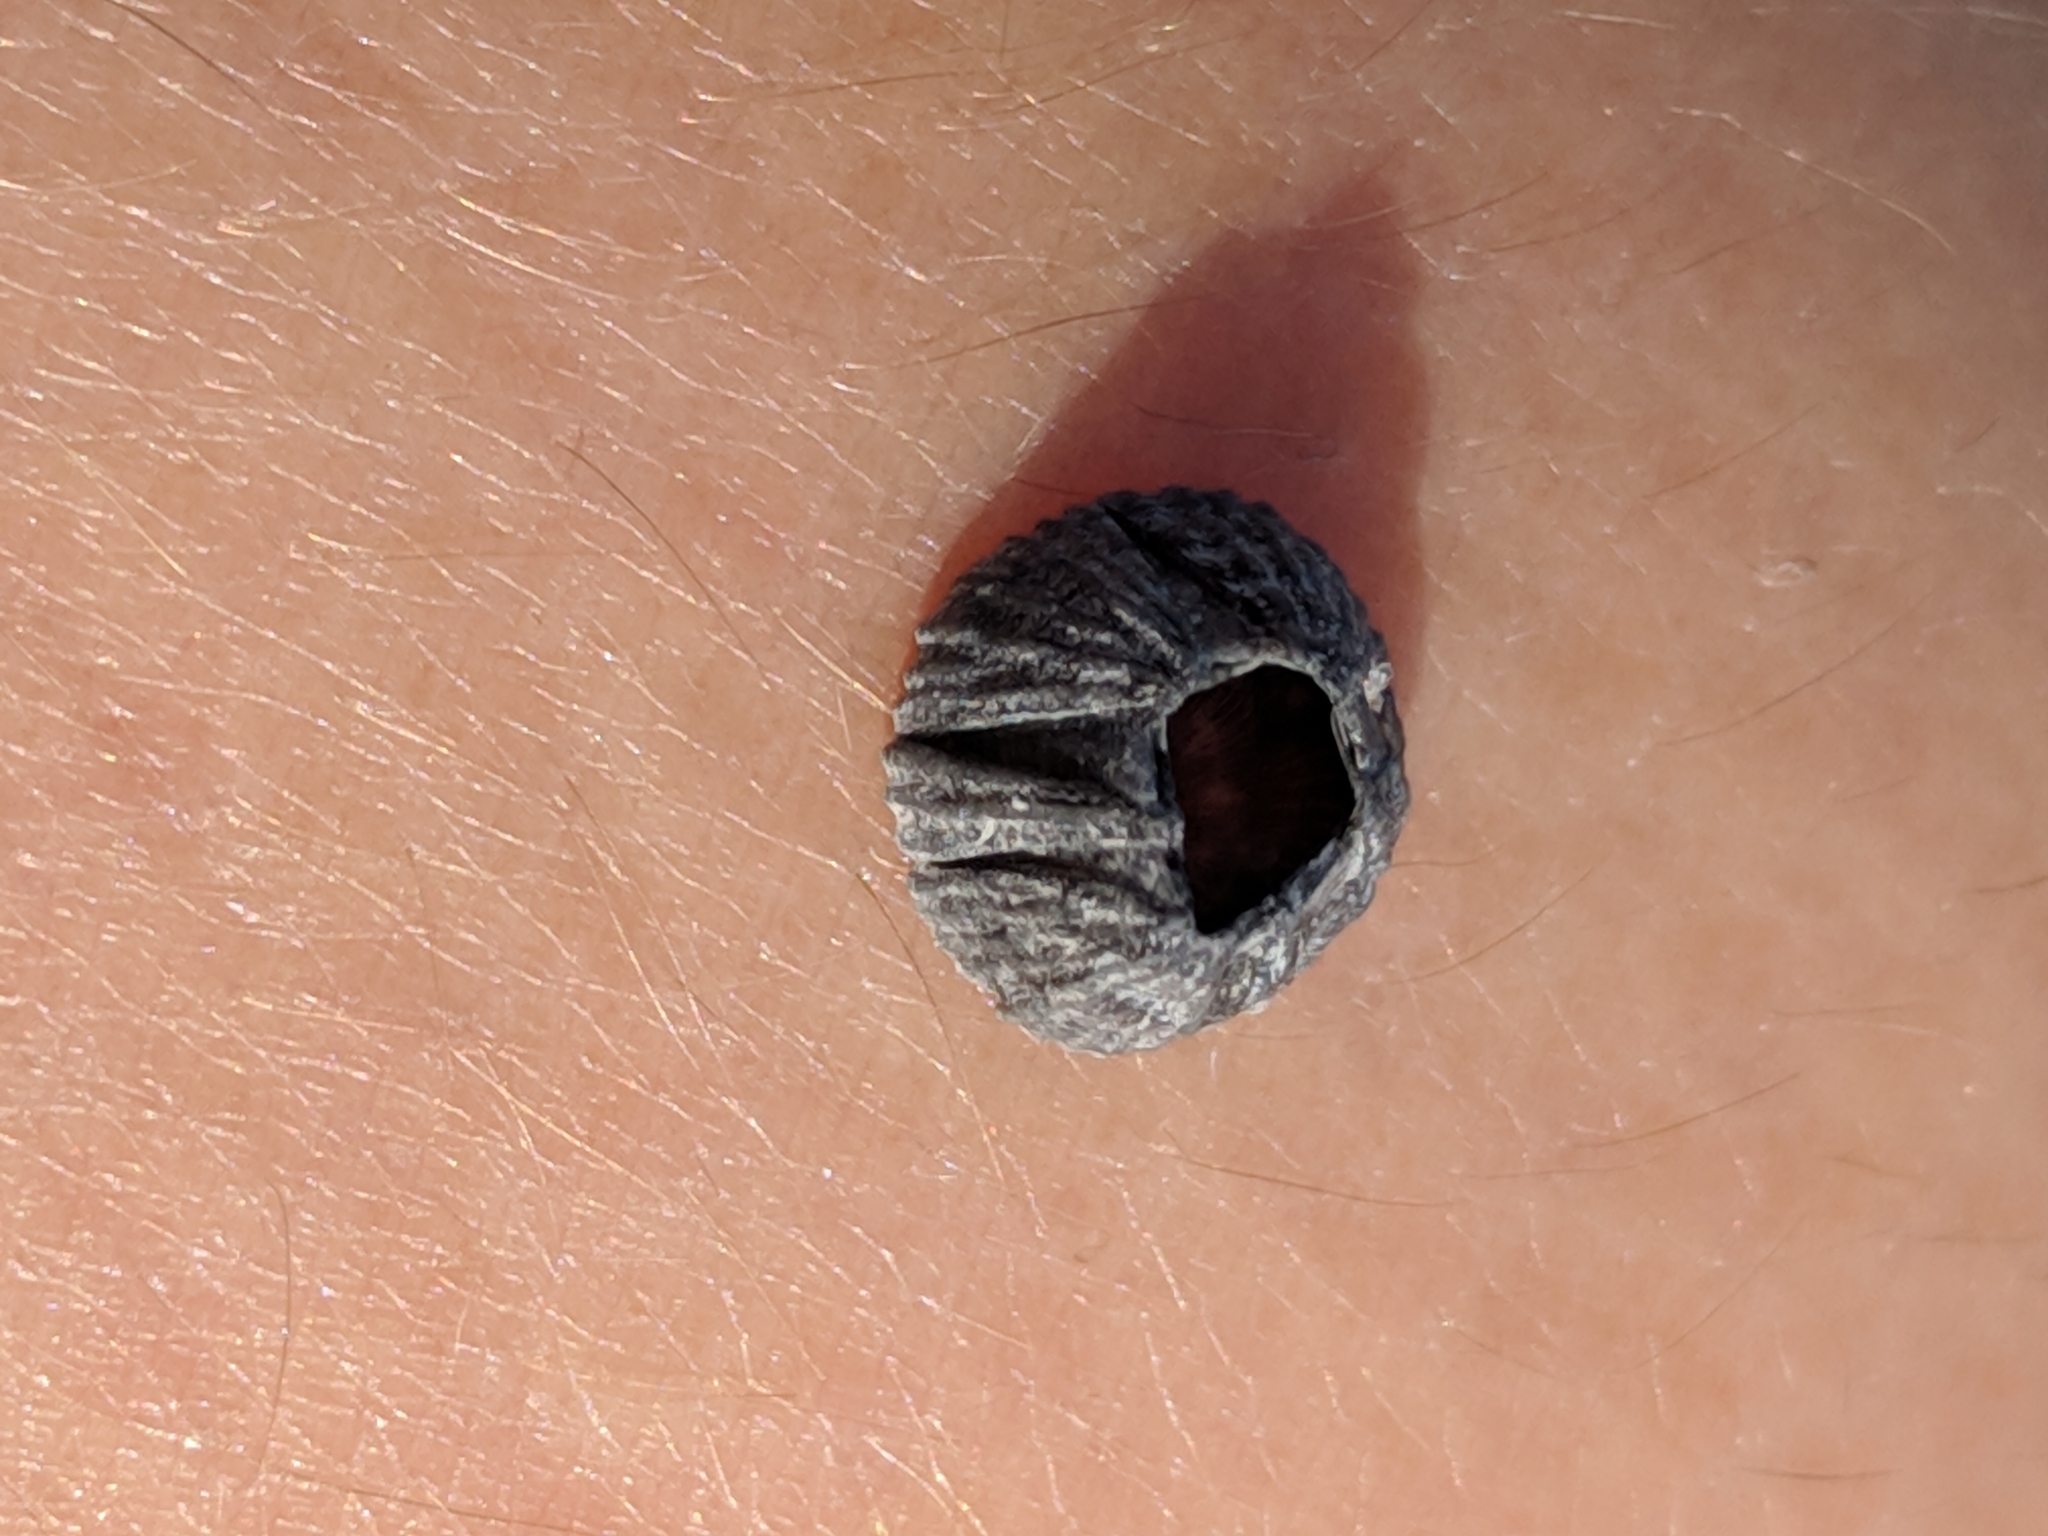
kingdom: Animalia
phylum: Arthropoda
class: Maxillopoda
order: Sessilia
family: Balanidae
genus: Balanus
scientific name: Balanus trigonus
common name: Triangle barnacle
